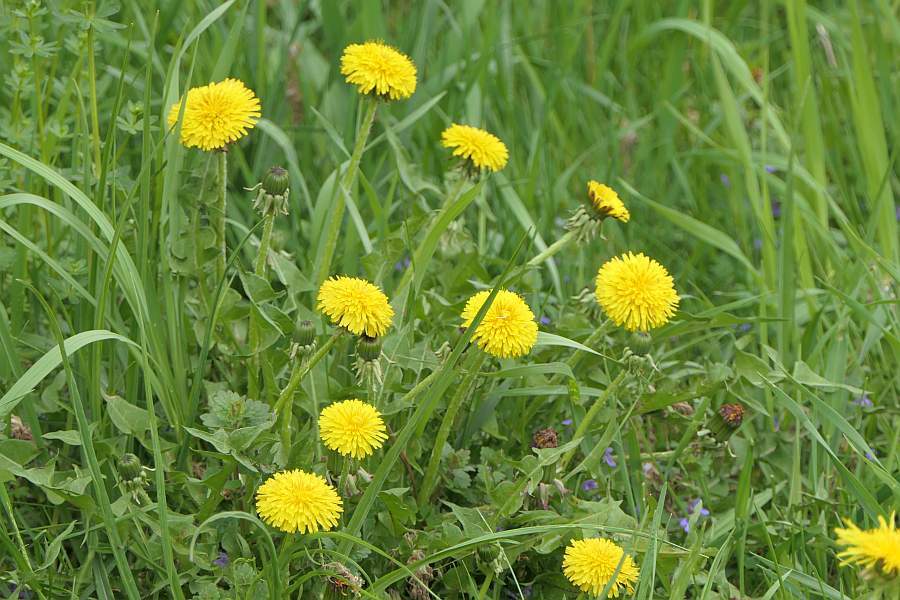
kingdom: Plantae
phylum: Tracheophyta
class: Magnoliopsida
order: Asterales
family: Asteraceae
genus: Taraxacum
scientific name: Taraxacum officinale
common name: Common dandelion
